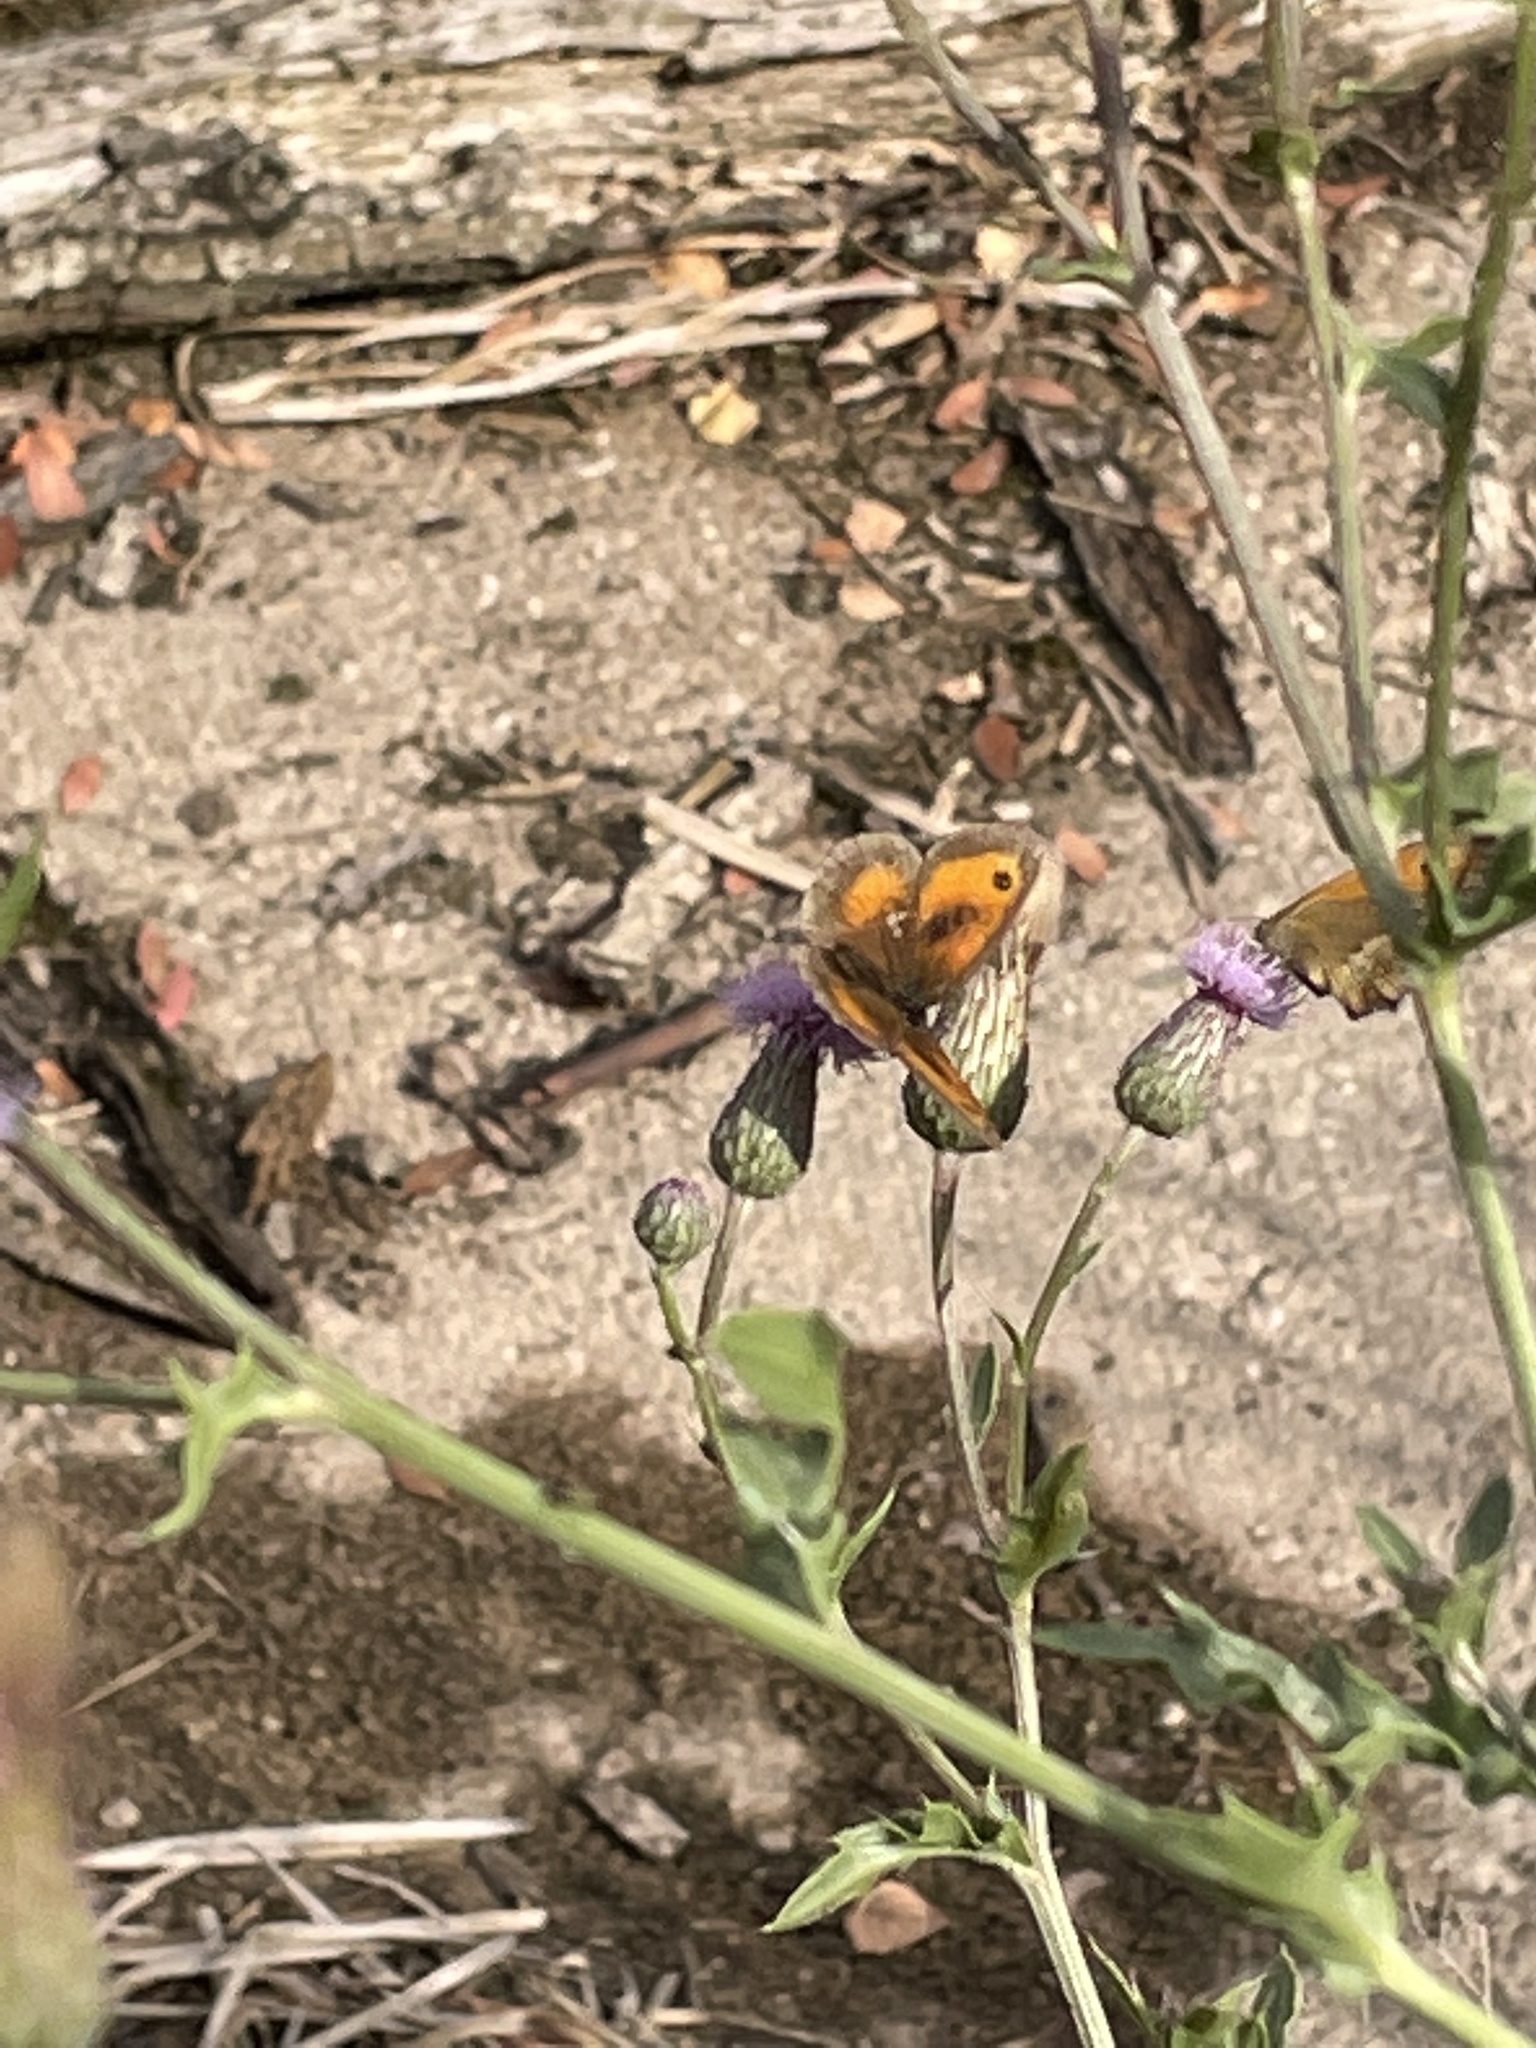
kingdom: Animalia
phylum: Arthropoda
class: Insecta
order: Lepidoptera
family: Nymphalidae
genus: Pyronia
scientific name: Pyronia tithonus
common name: Gatekeeper
